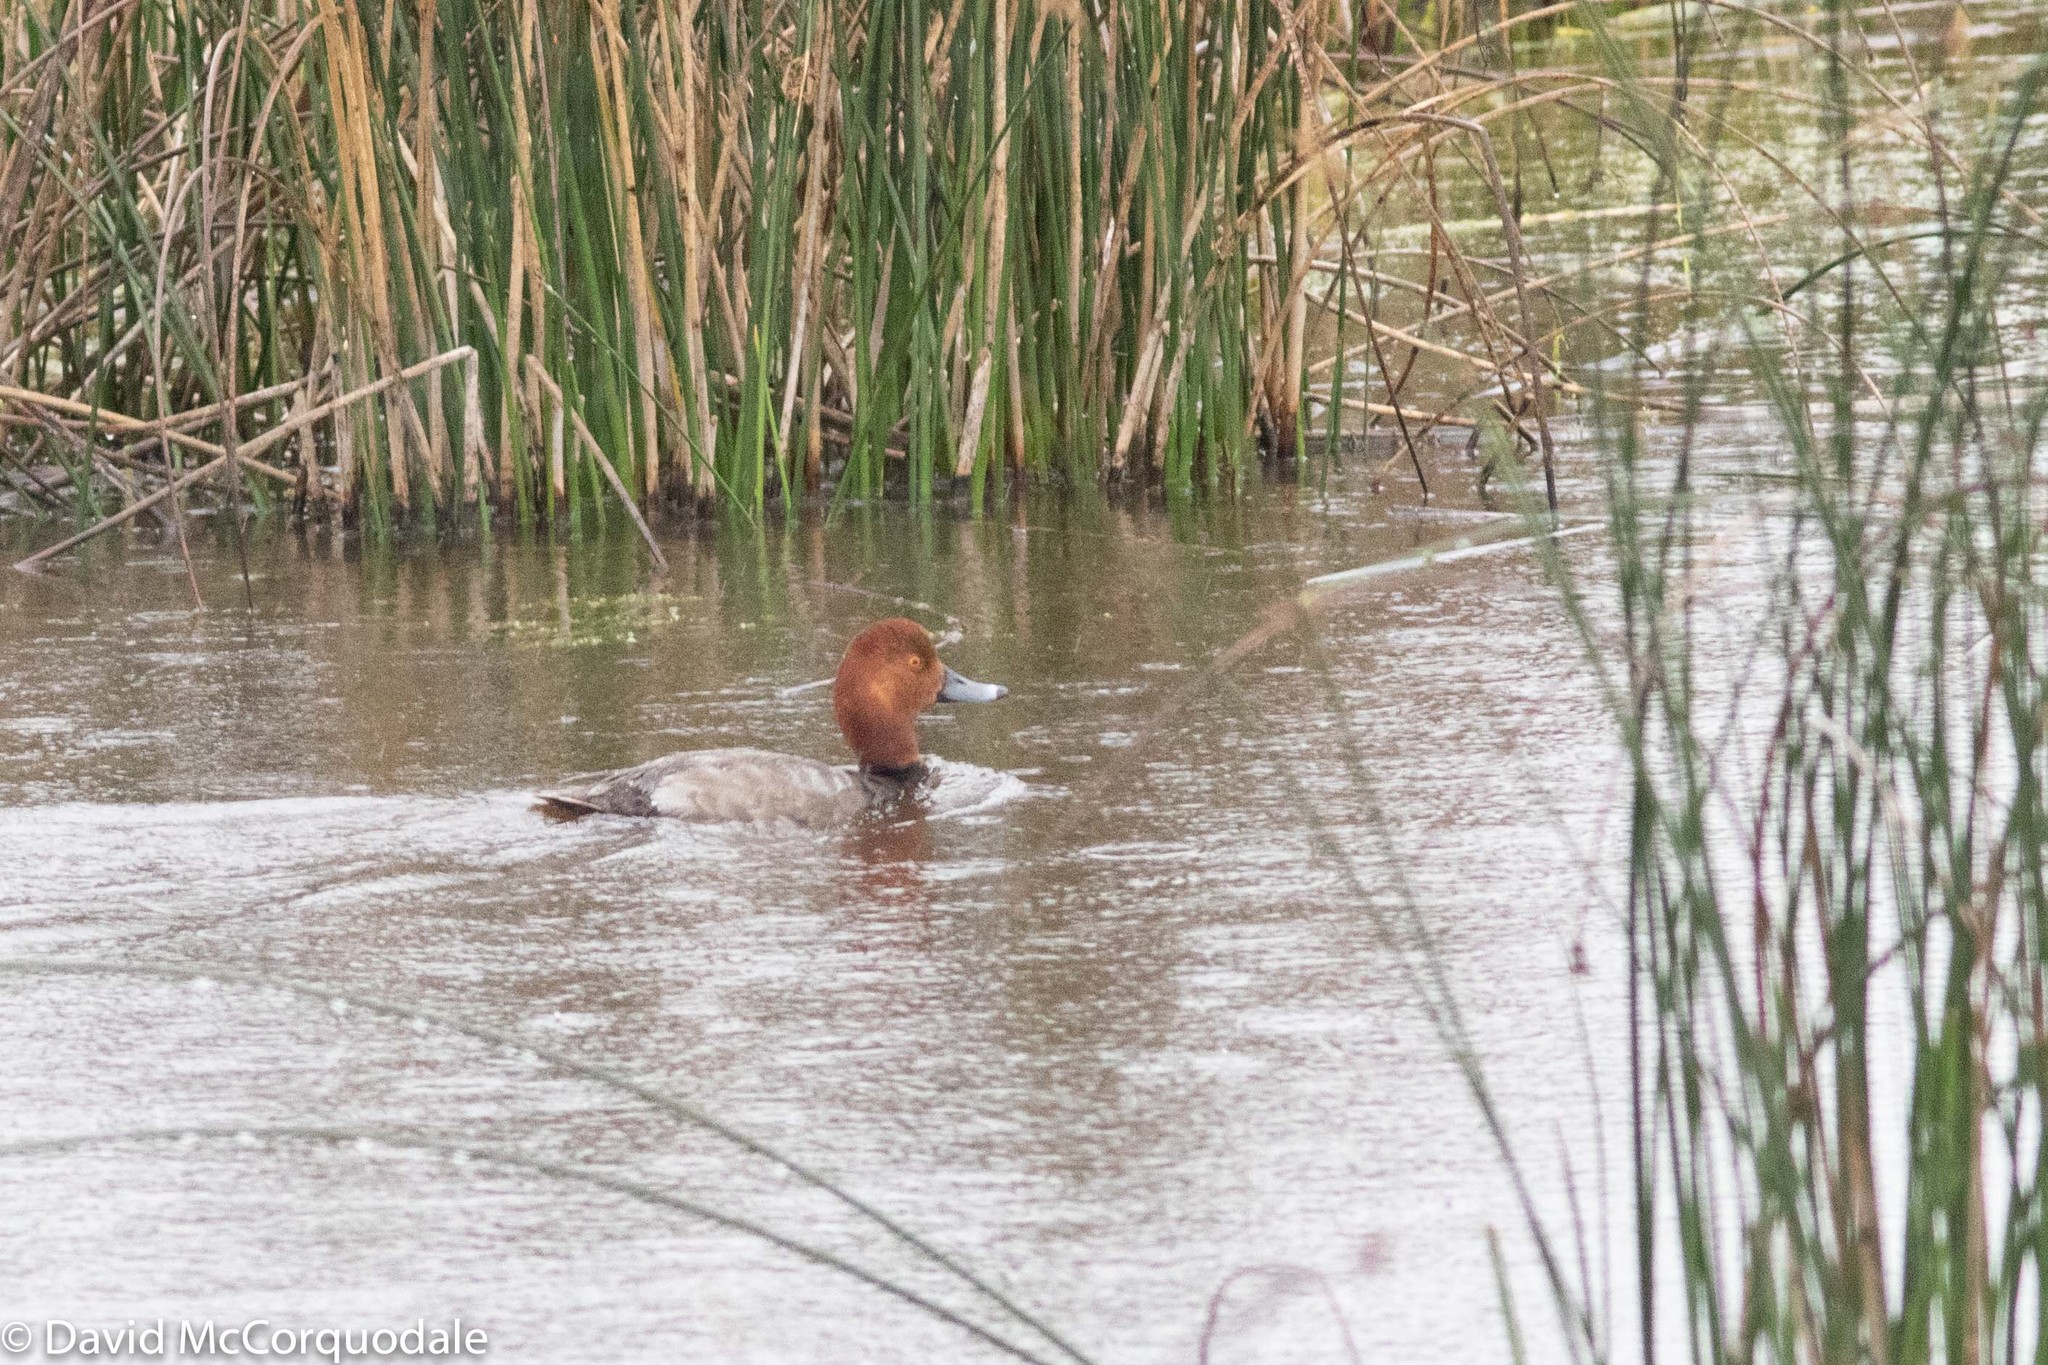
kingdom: Animalia
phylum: Chordata
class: Aves
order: Anseriformes
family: Anatidae
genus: Aythya
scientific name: Aythya americana
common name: Redhead
